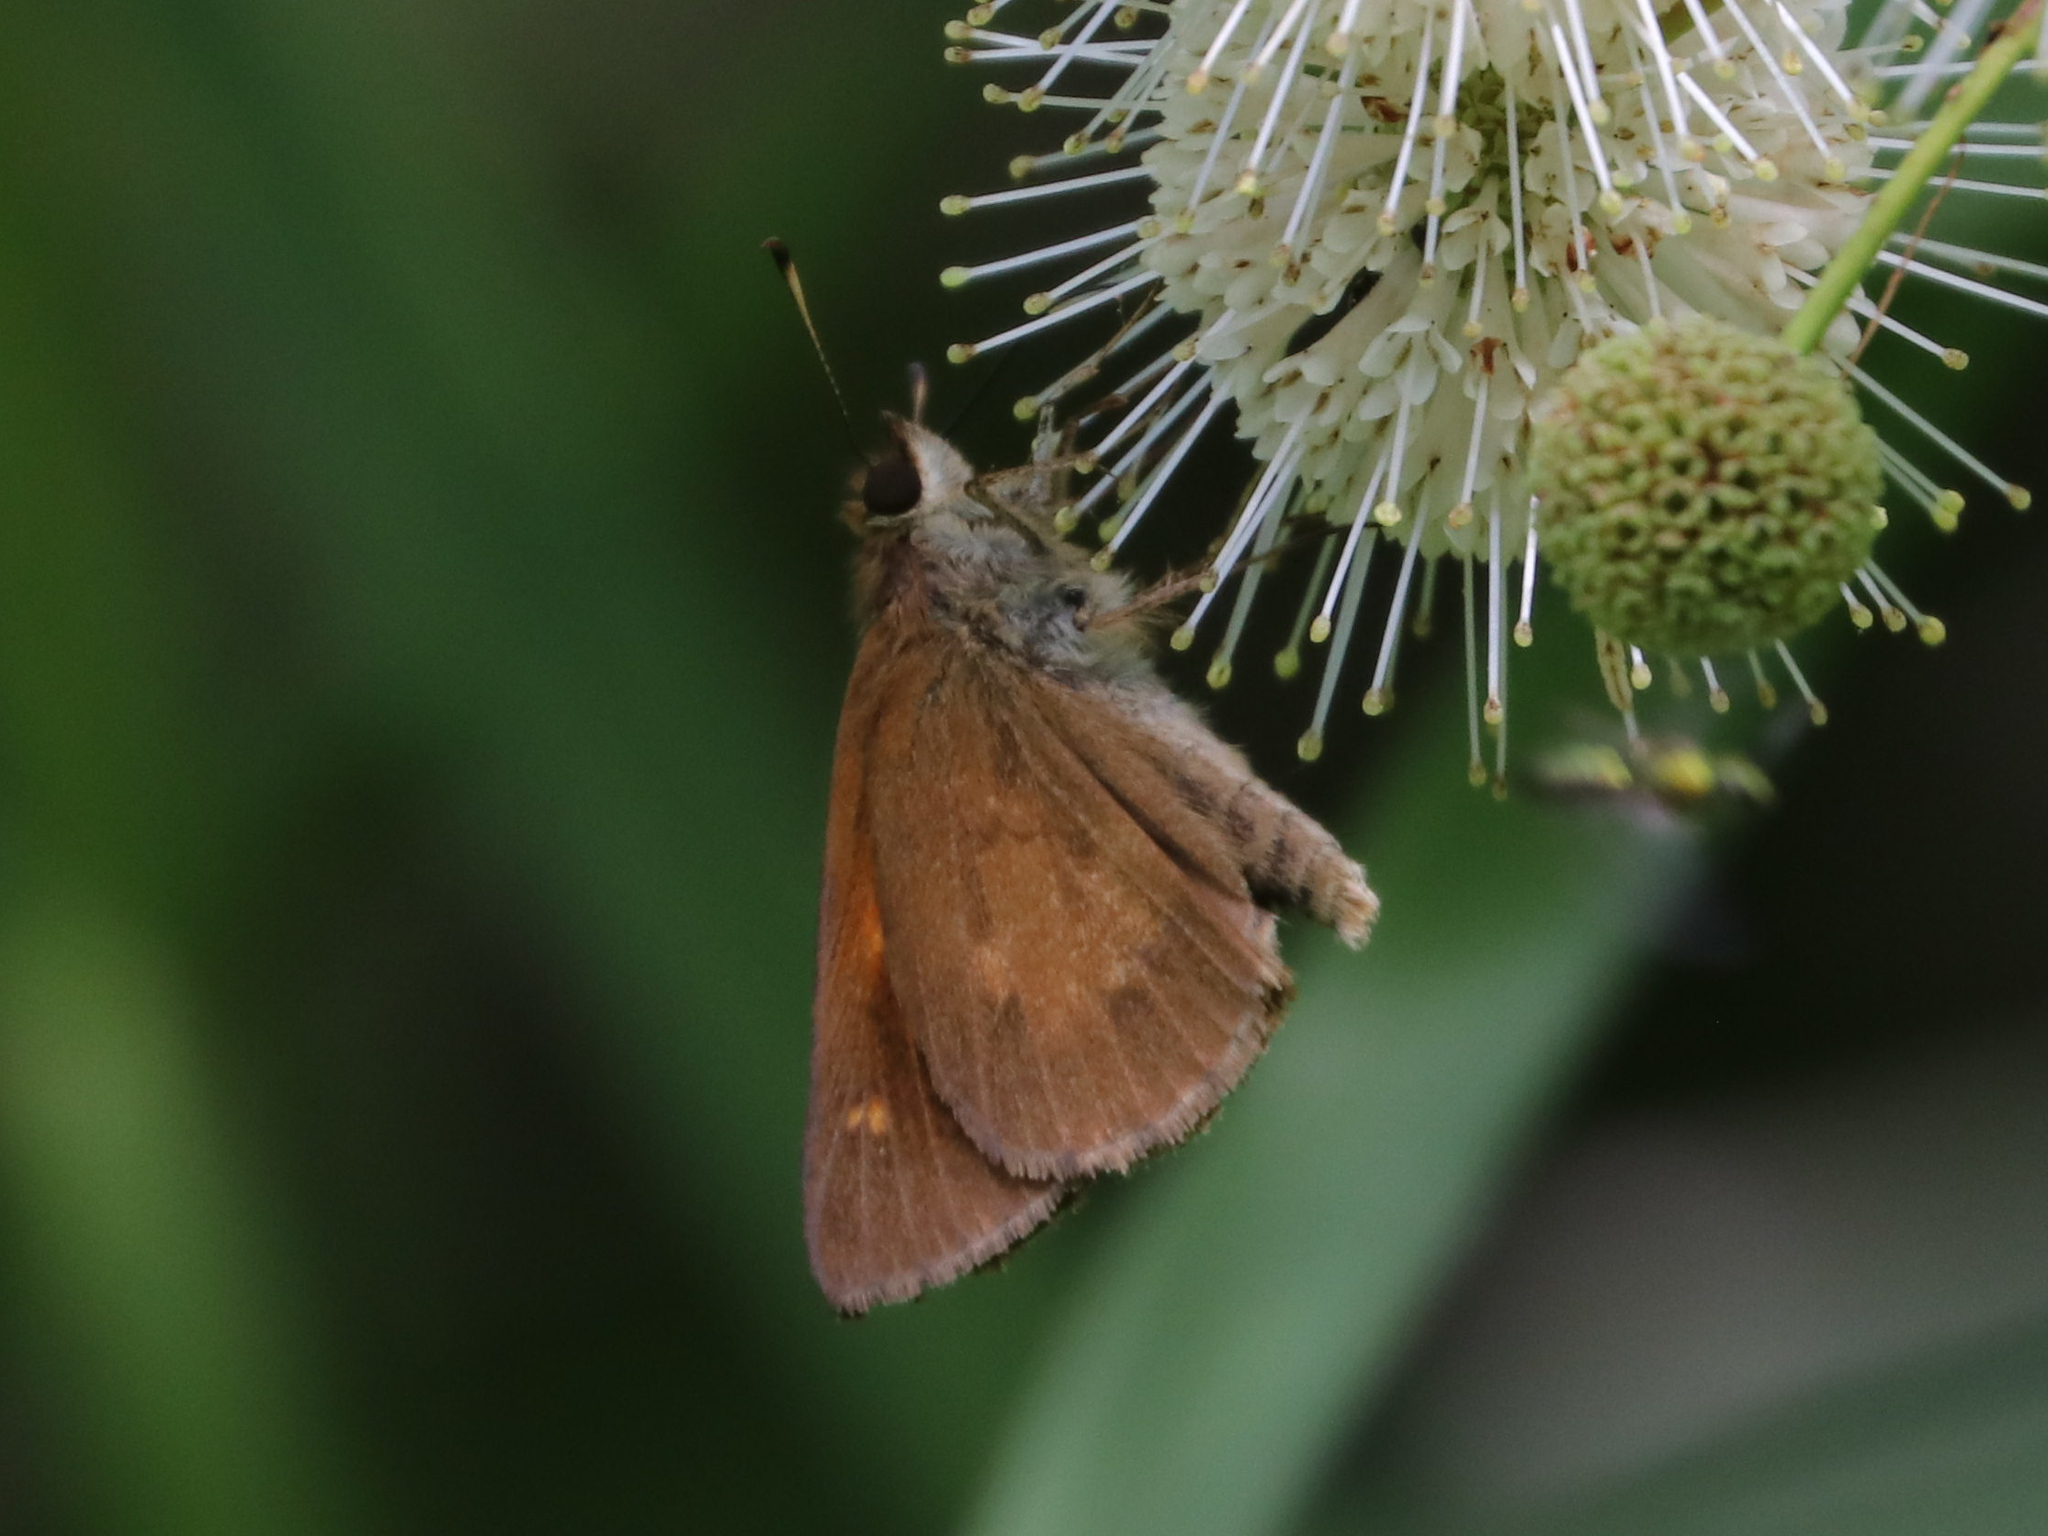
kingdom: Animalia
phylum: Arthropoda
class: Insecta
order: Lepidoptera
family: Hesperiidae
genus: Poanes
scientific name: Poanes viator
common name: Broad-winged skipper
